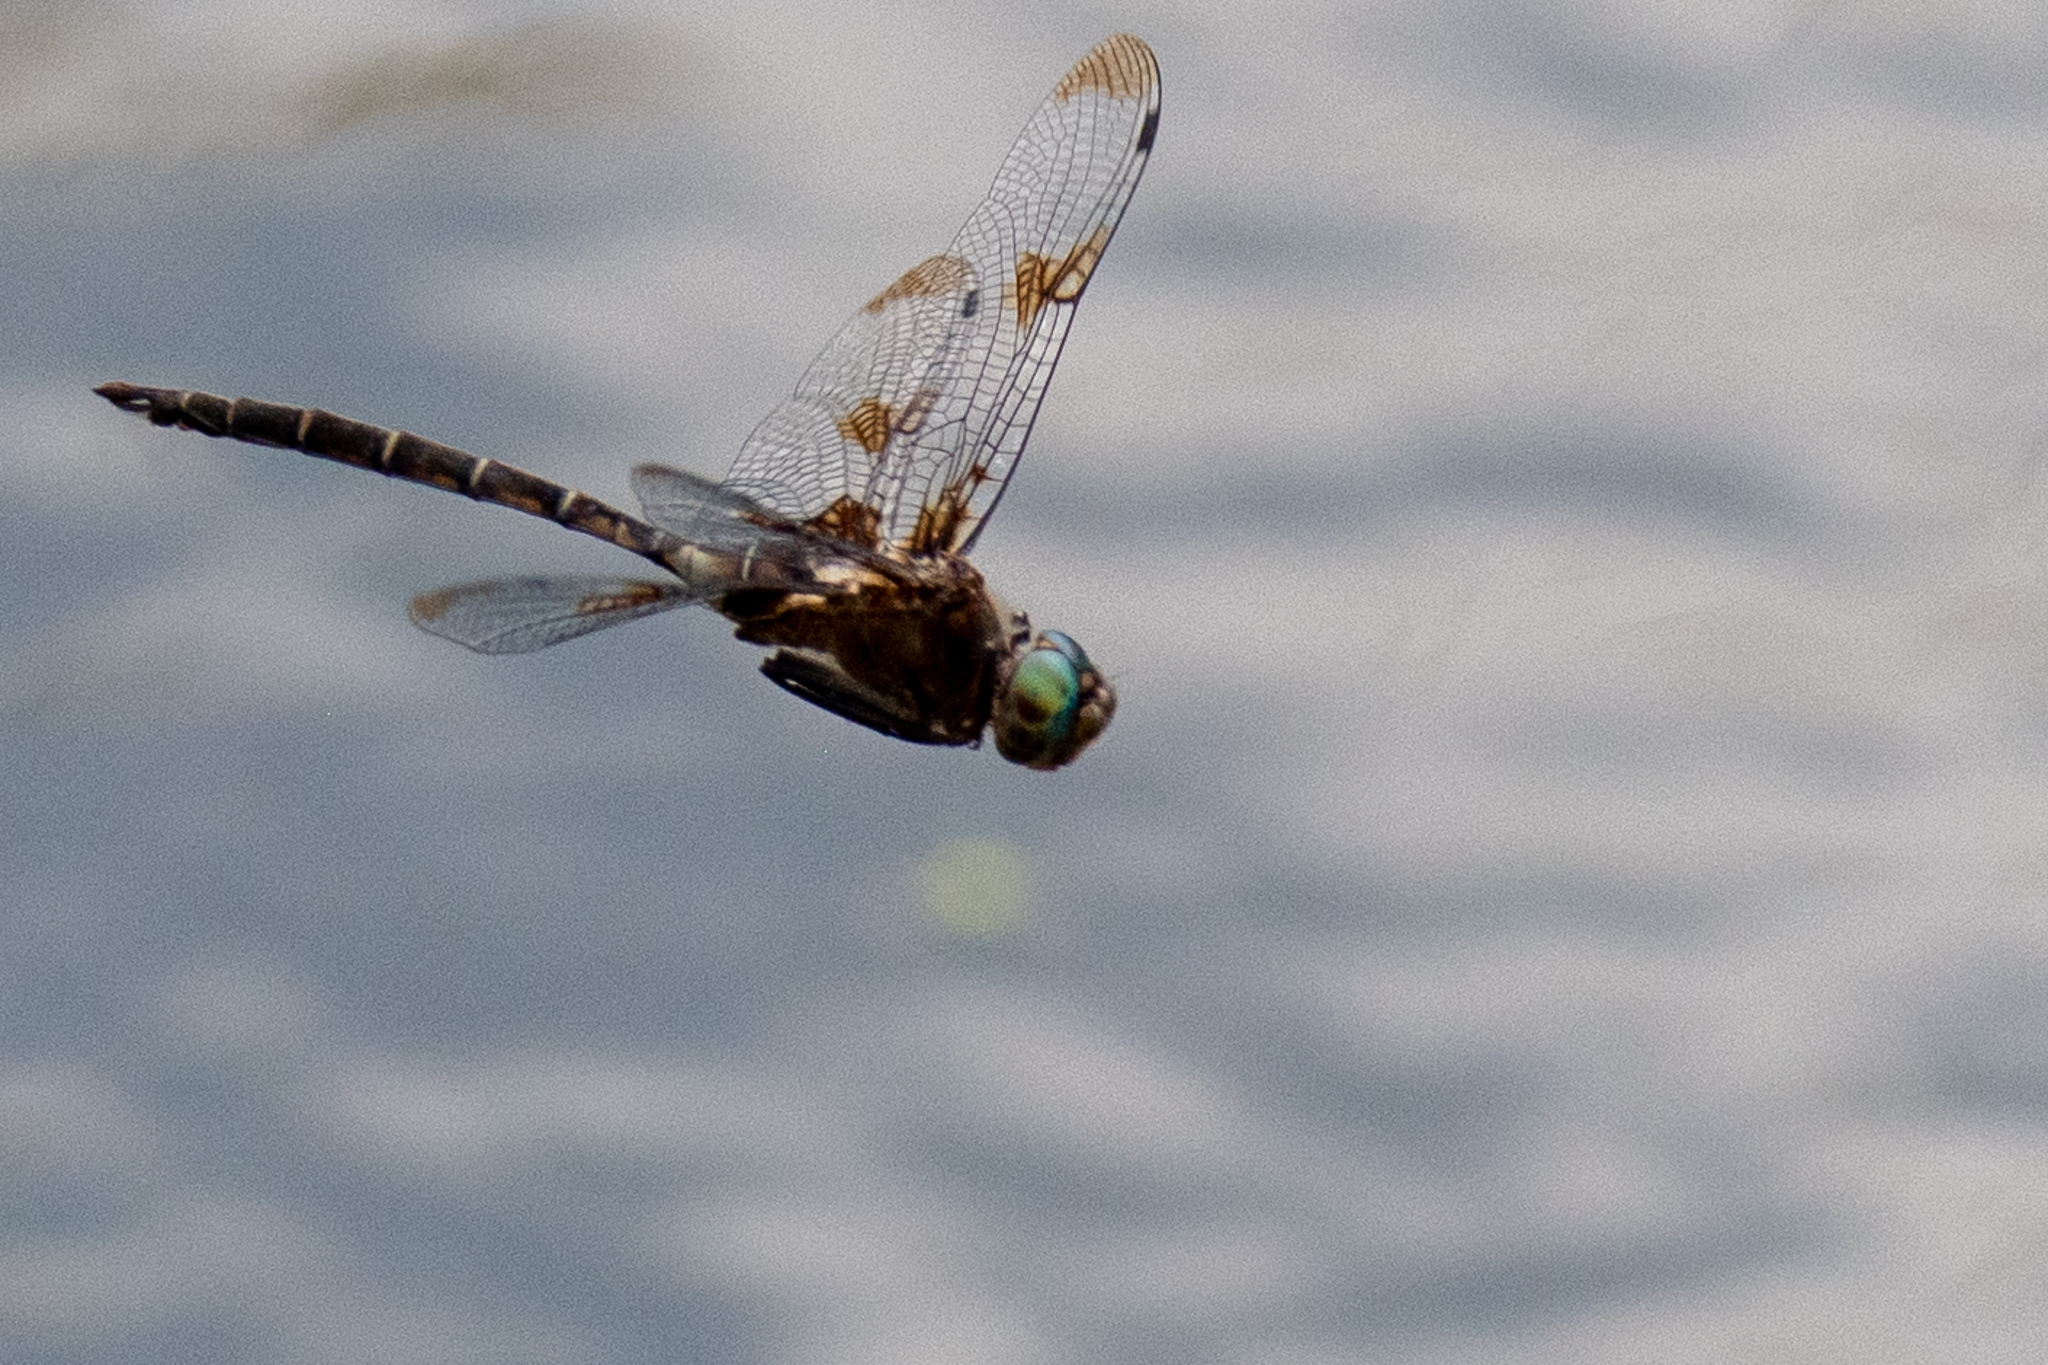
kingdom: Animalia
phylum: Arthropoda
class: Insecta
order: Odonata
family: Corduliidae
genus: Epitheca
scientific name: Epitheca princeps
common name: Prince baskettail
